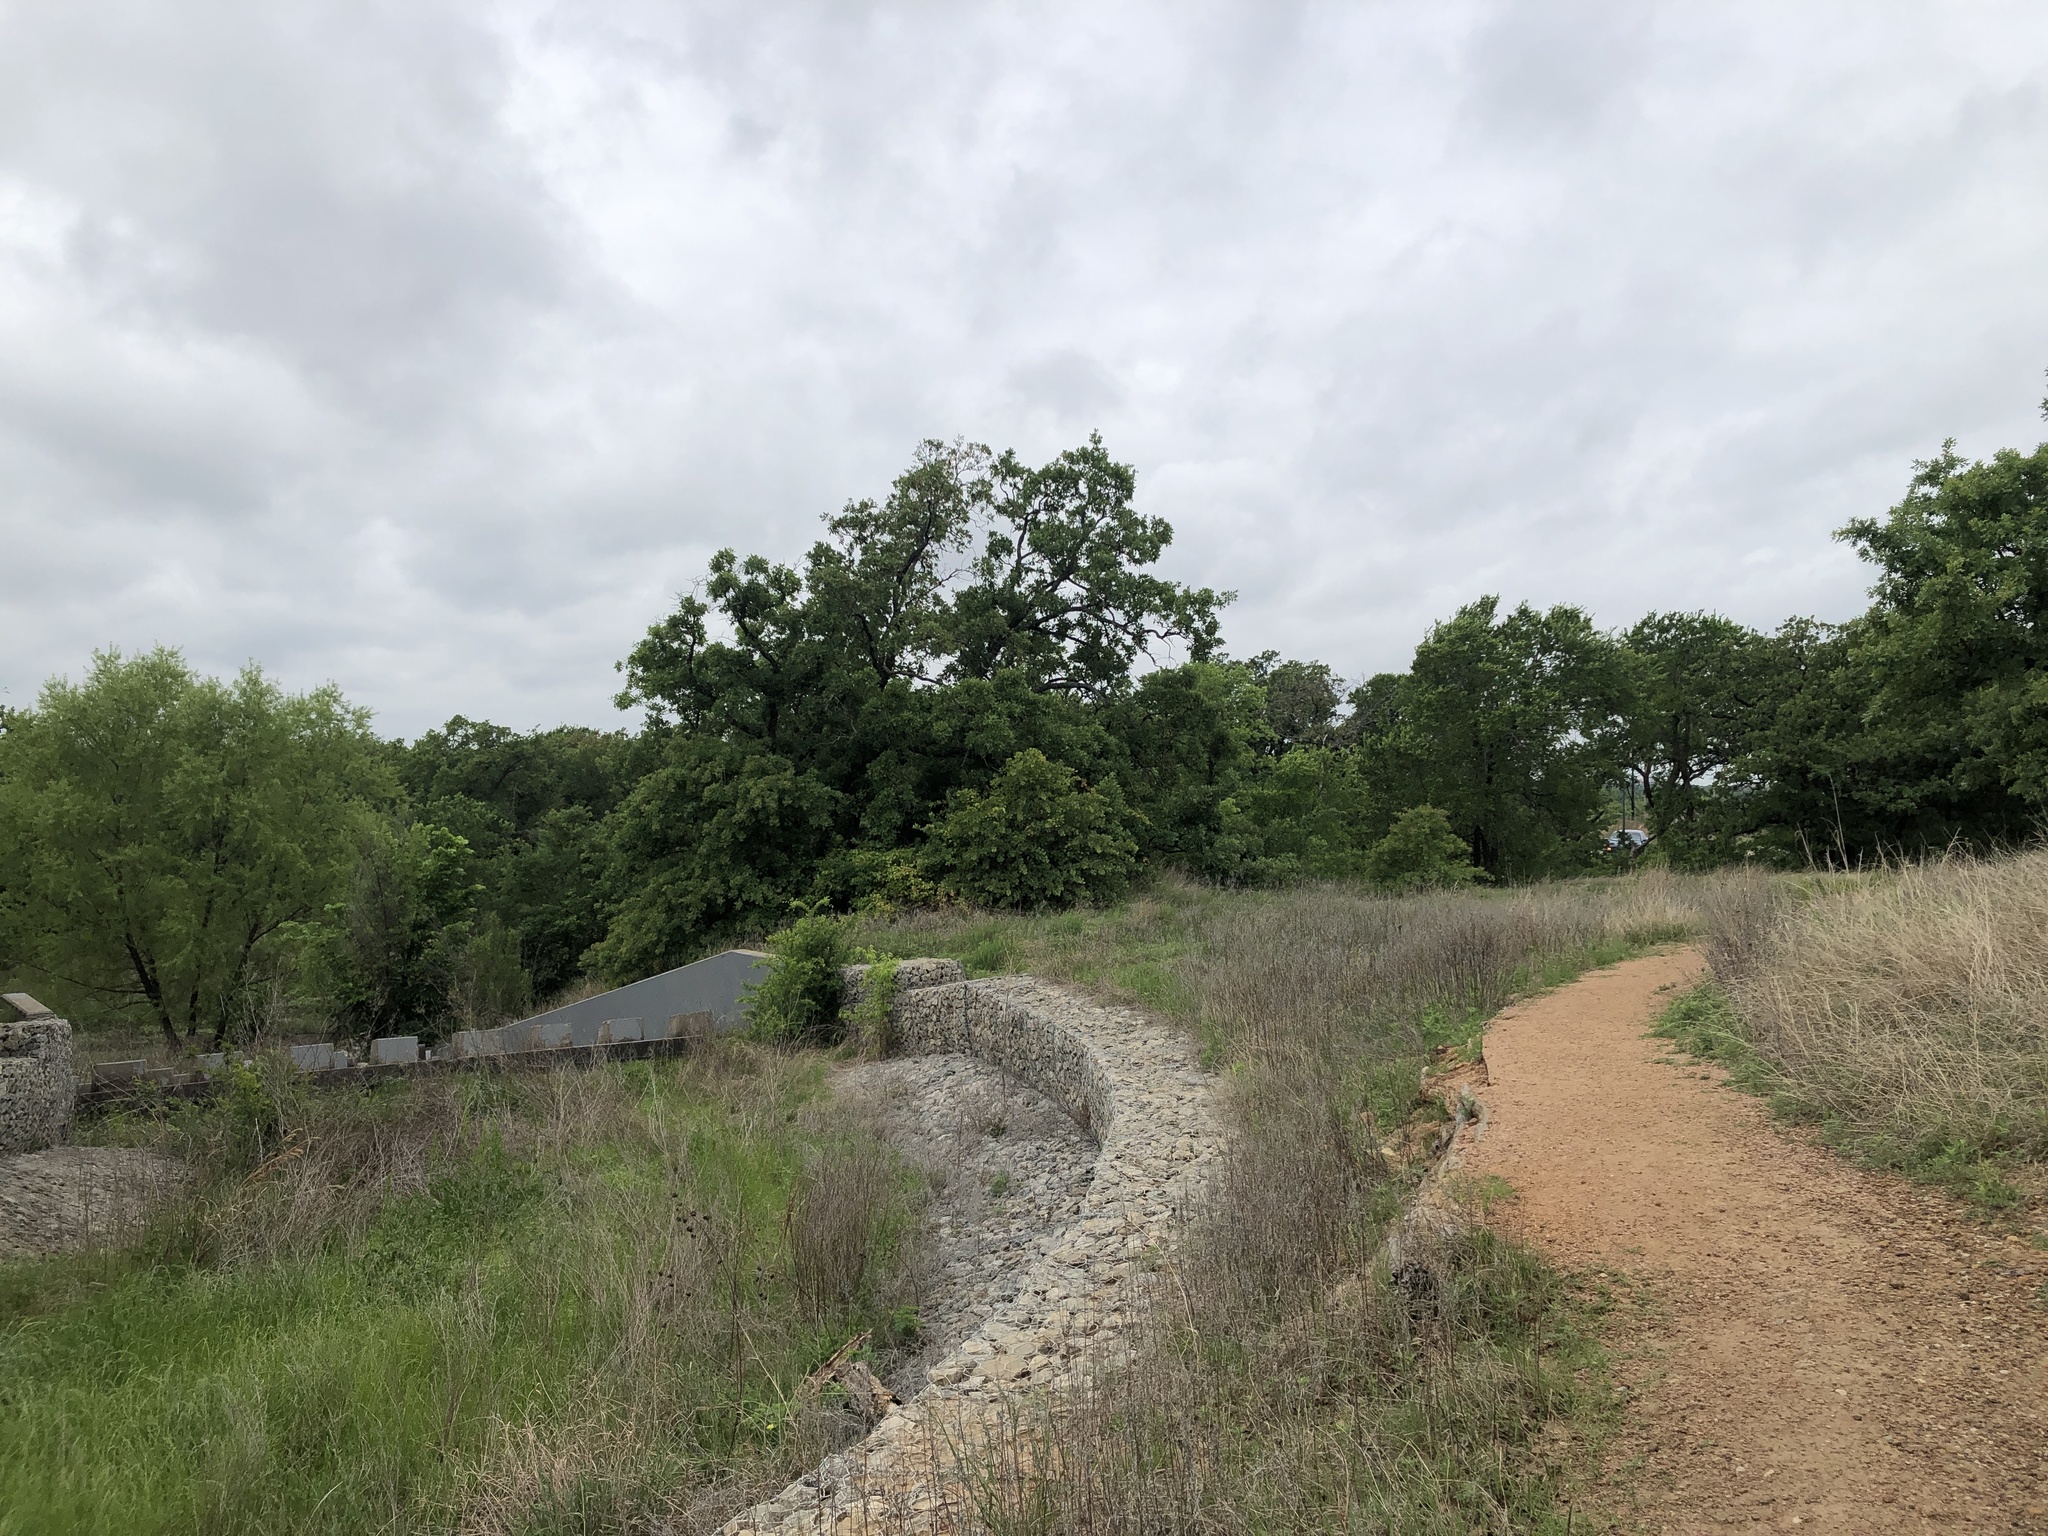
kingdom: Animalia
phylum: Chordata
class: Aves
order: Passeriformes
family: Cardinalidae
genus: Cardinalis
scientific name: Cardinalis cardinalis
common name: Northern cardinal
